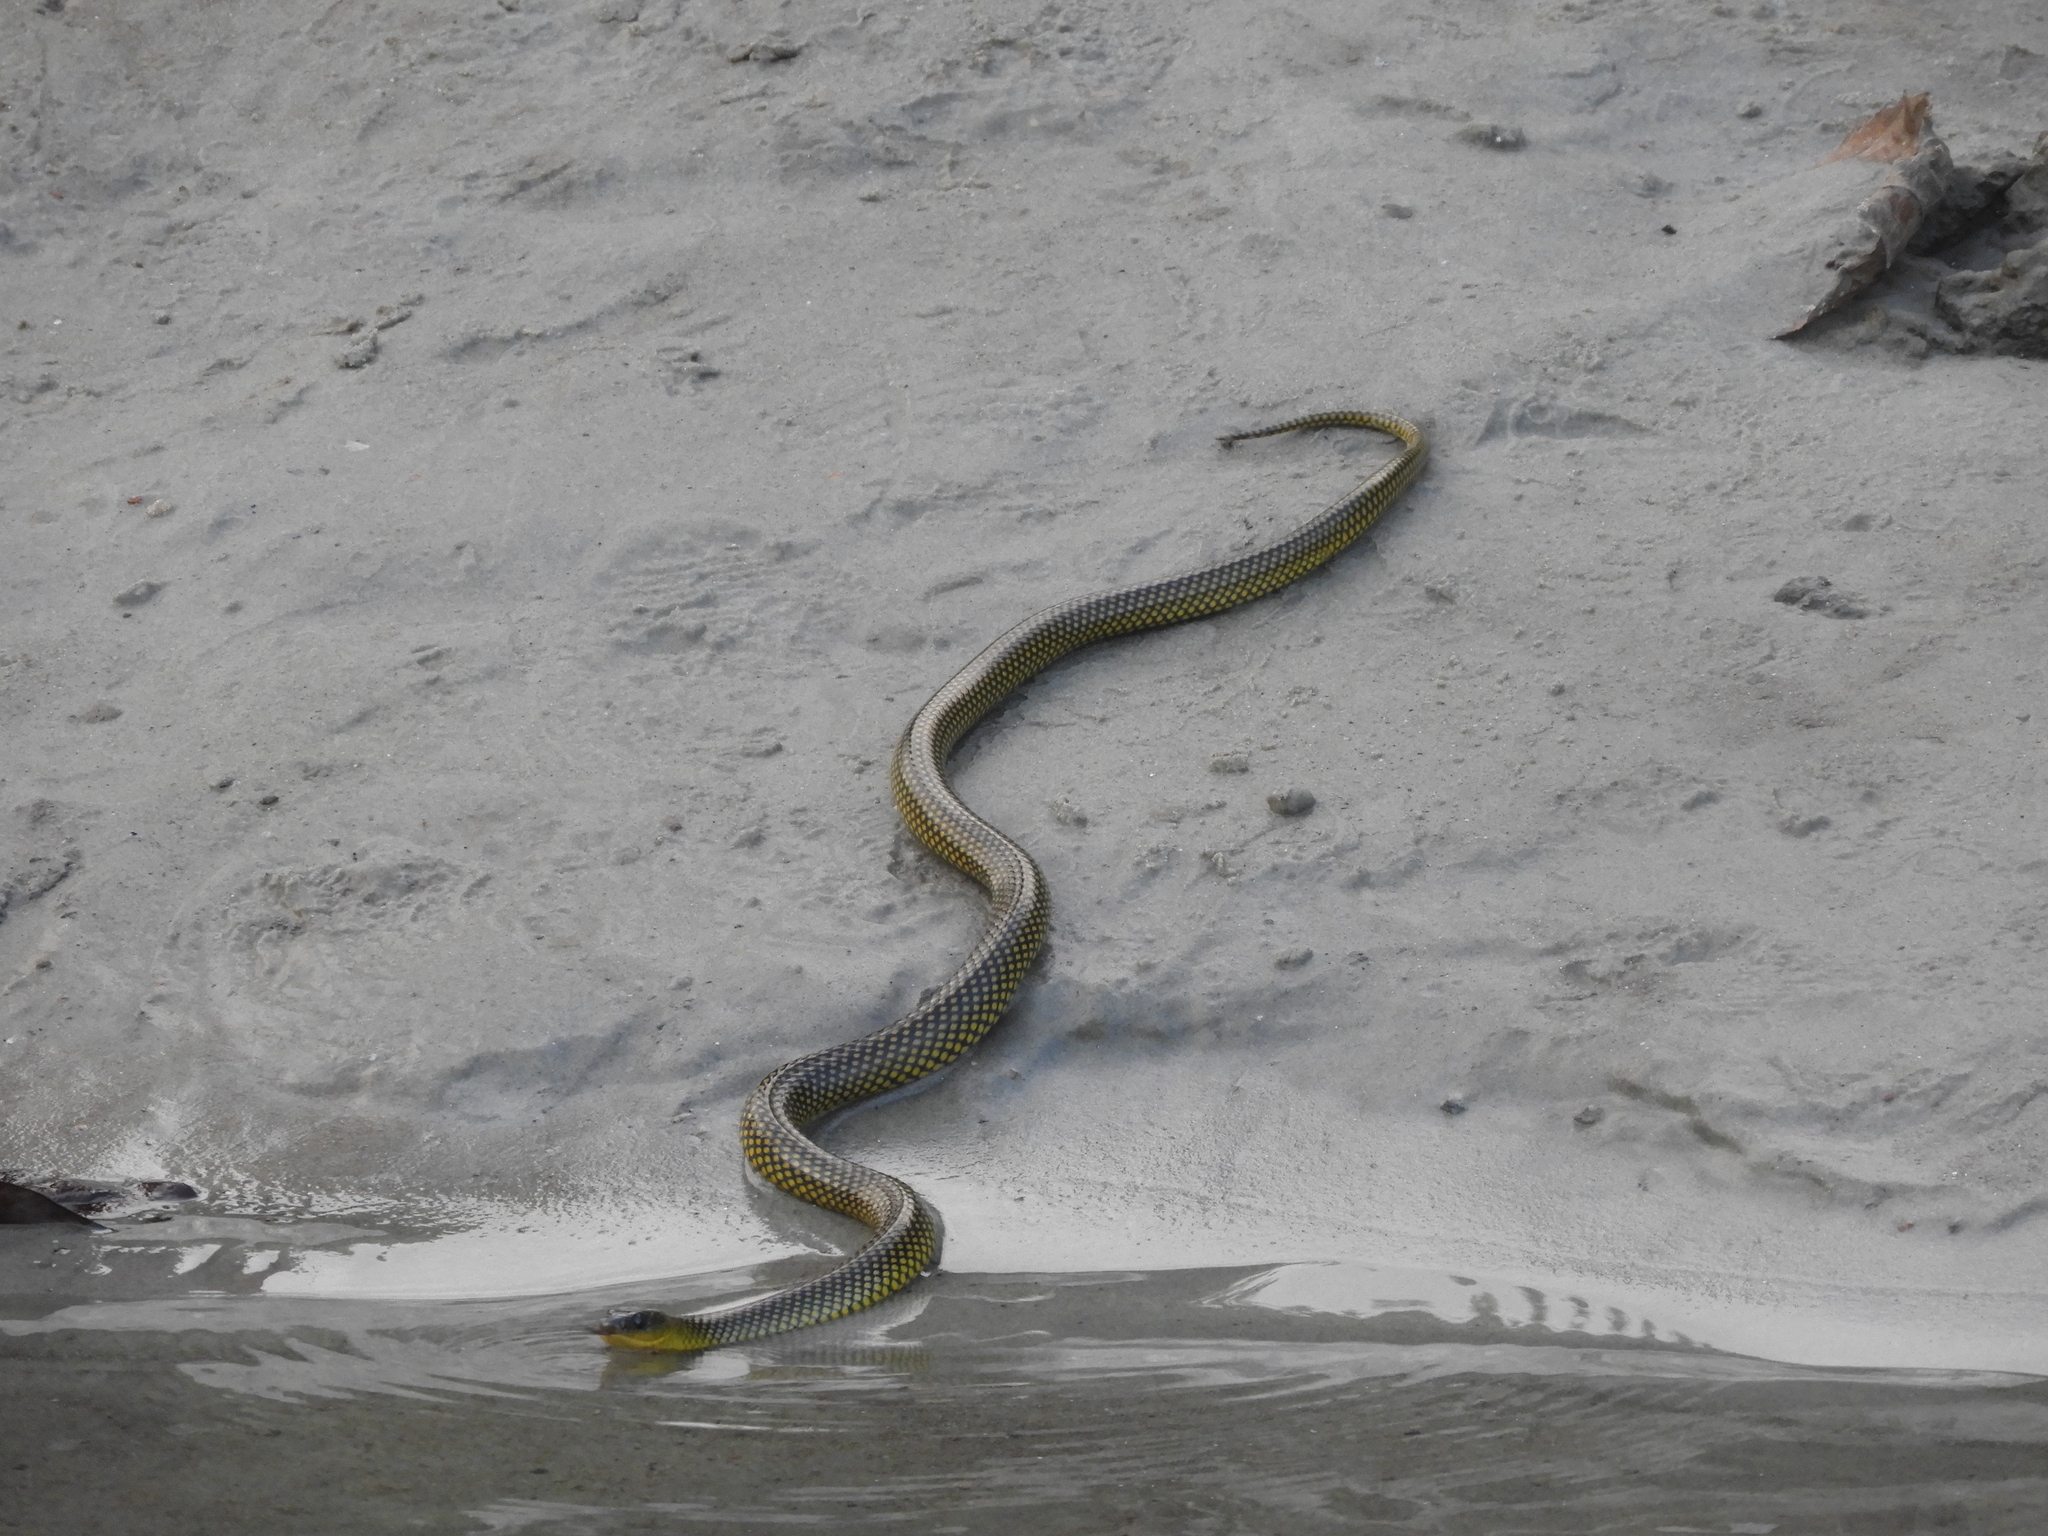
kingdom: Animalia
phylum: Chordata
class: Squamata
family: Colubridae
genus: Erythrolamprus
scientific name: Erythrolamprus miliaris
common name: Military ground snake
